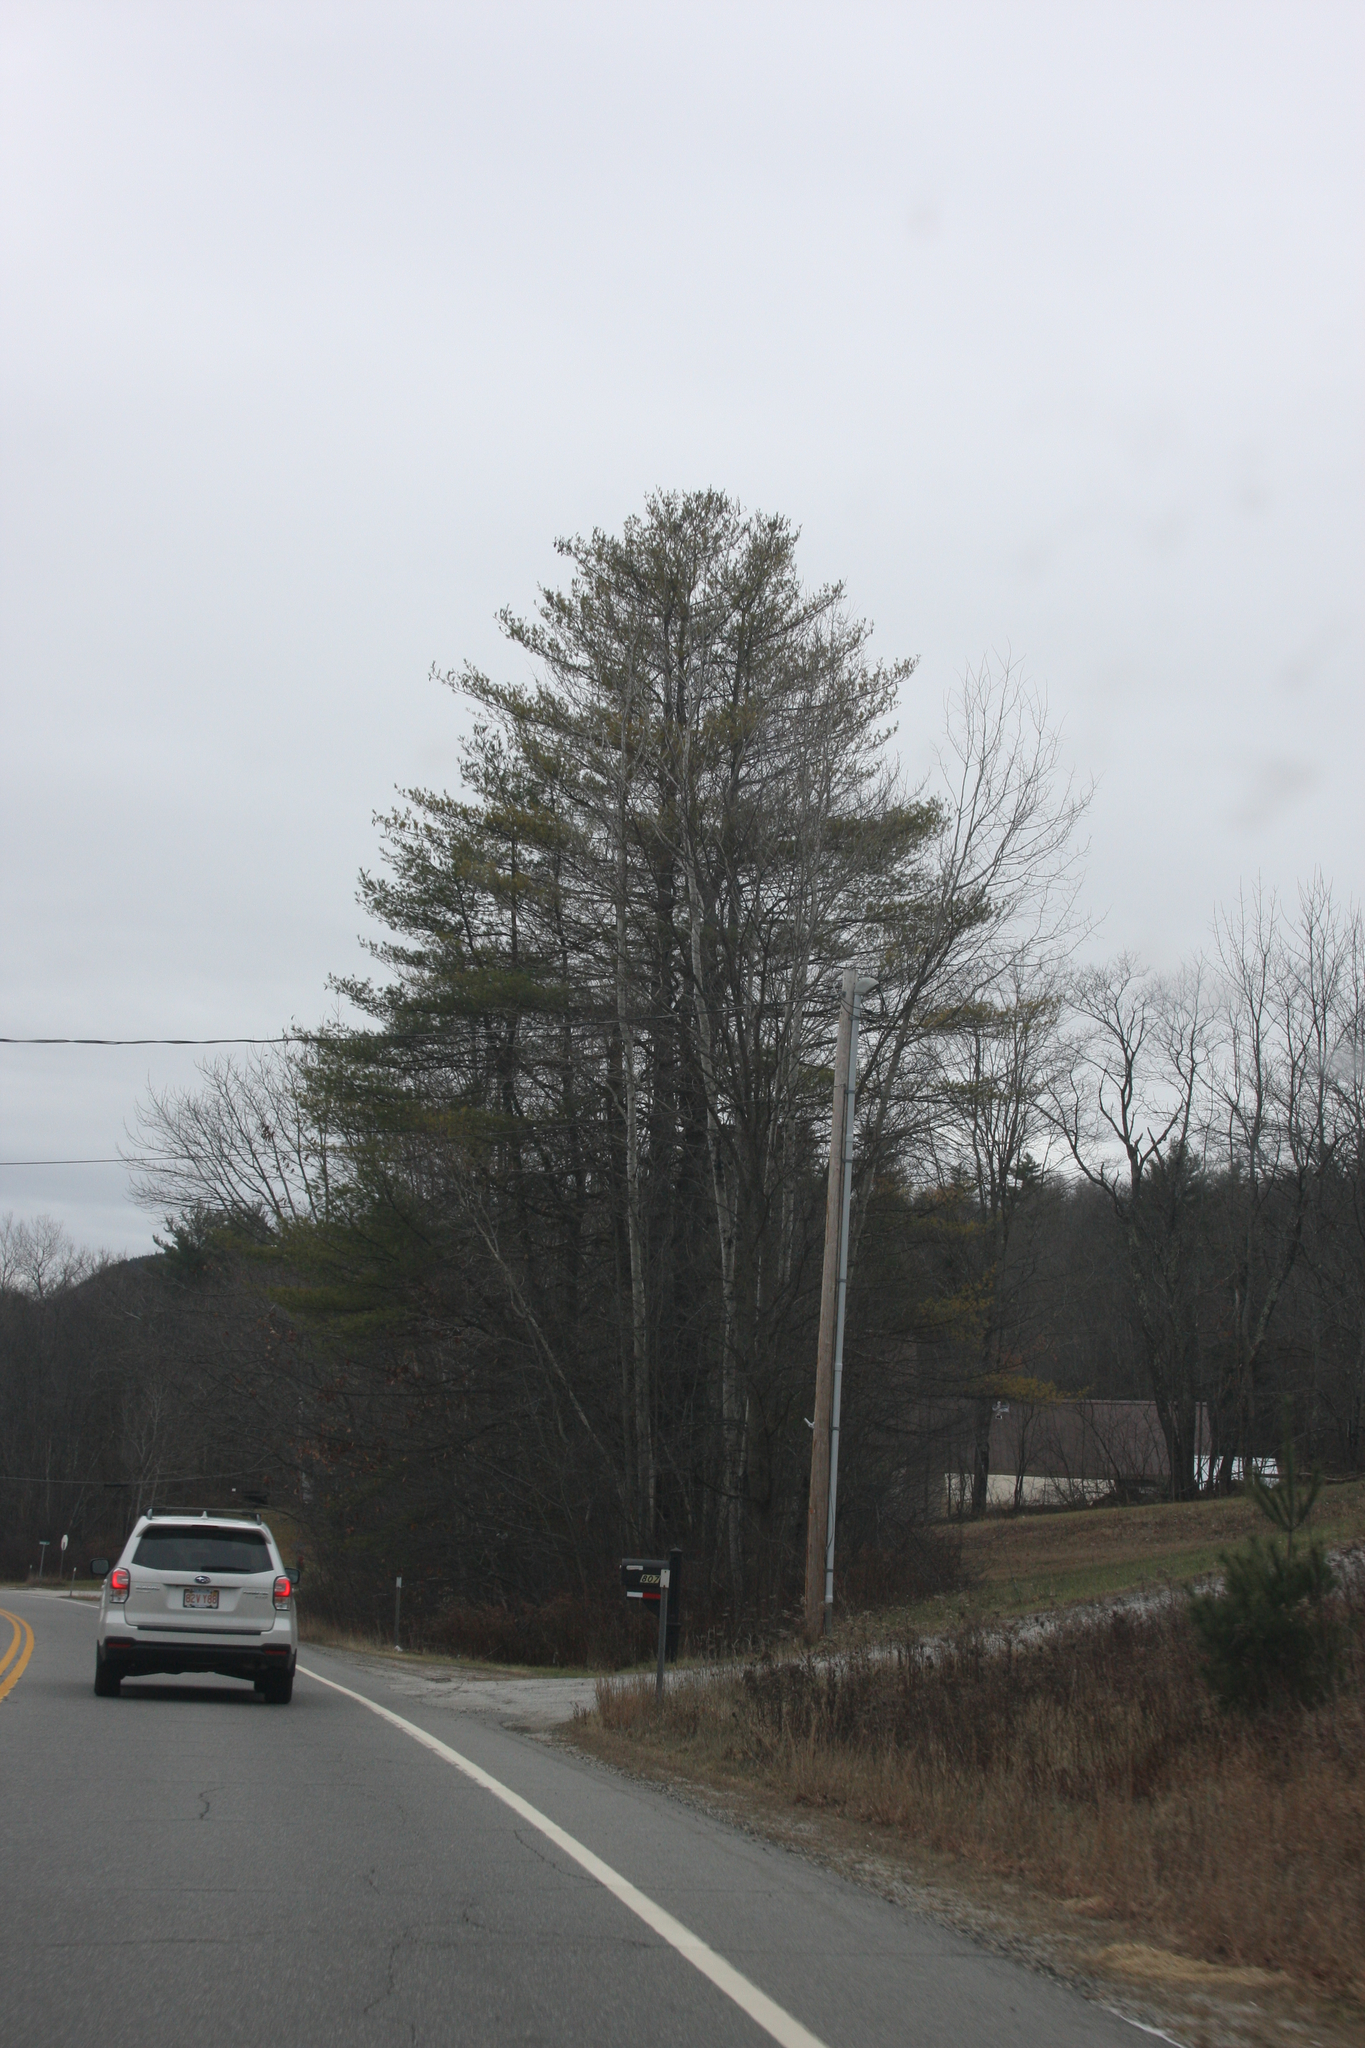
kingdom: Plantae
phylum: Tracheophyta
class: Pinopsida
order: Pinales
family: Pinaceae
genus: Pinus
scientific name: Pinus strobus
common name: Weymouth pine
